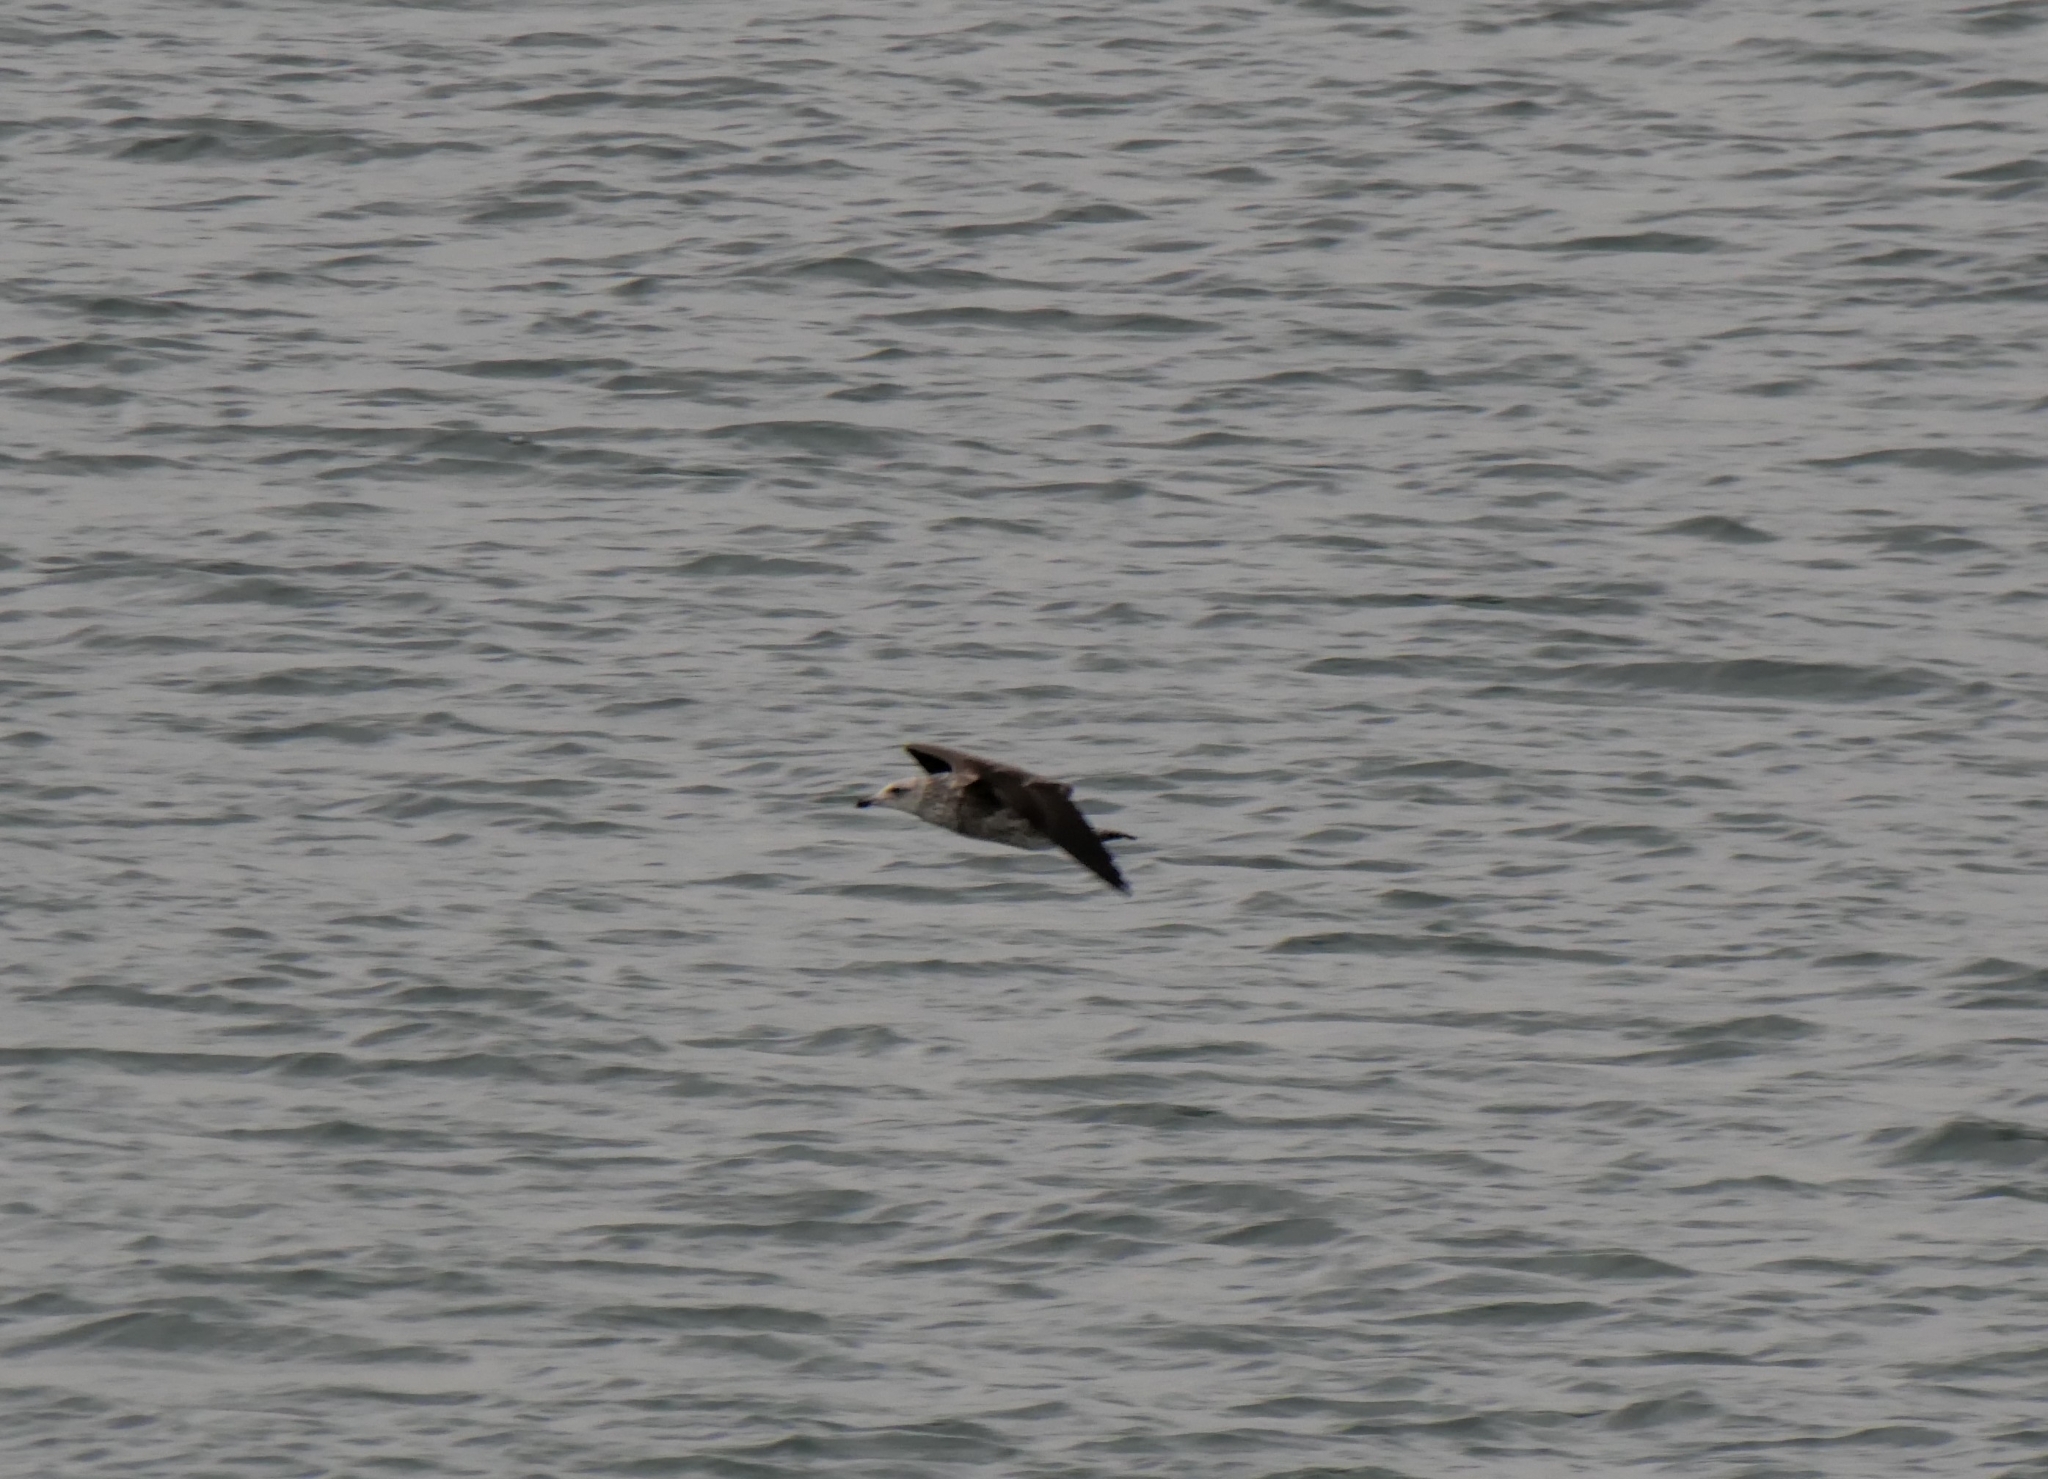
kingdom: Animalia
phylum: Chordata
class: Aves
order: Charadriiformes
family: Laridae
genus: Larus
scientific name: Larus dominicanus
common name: Kelp gull
